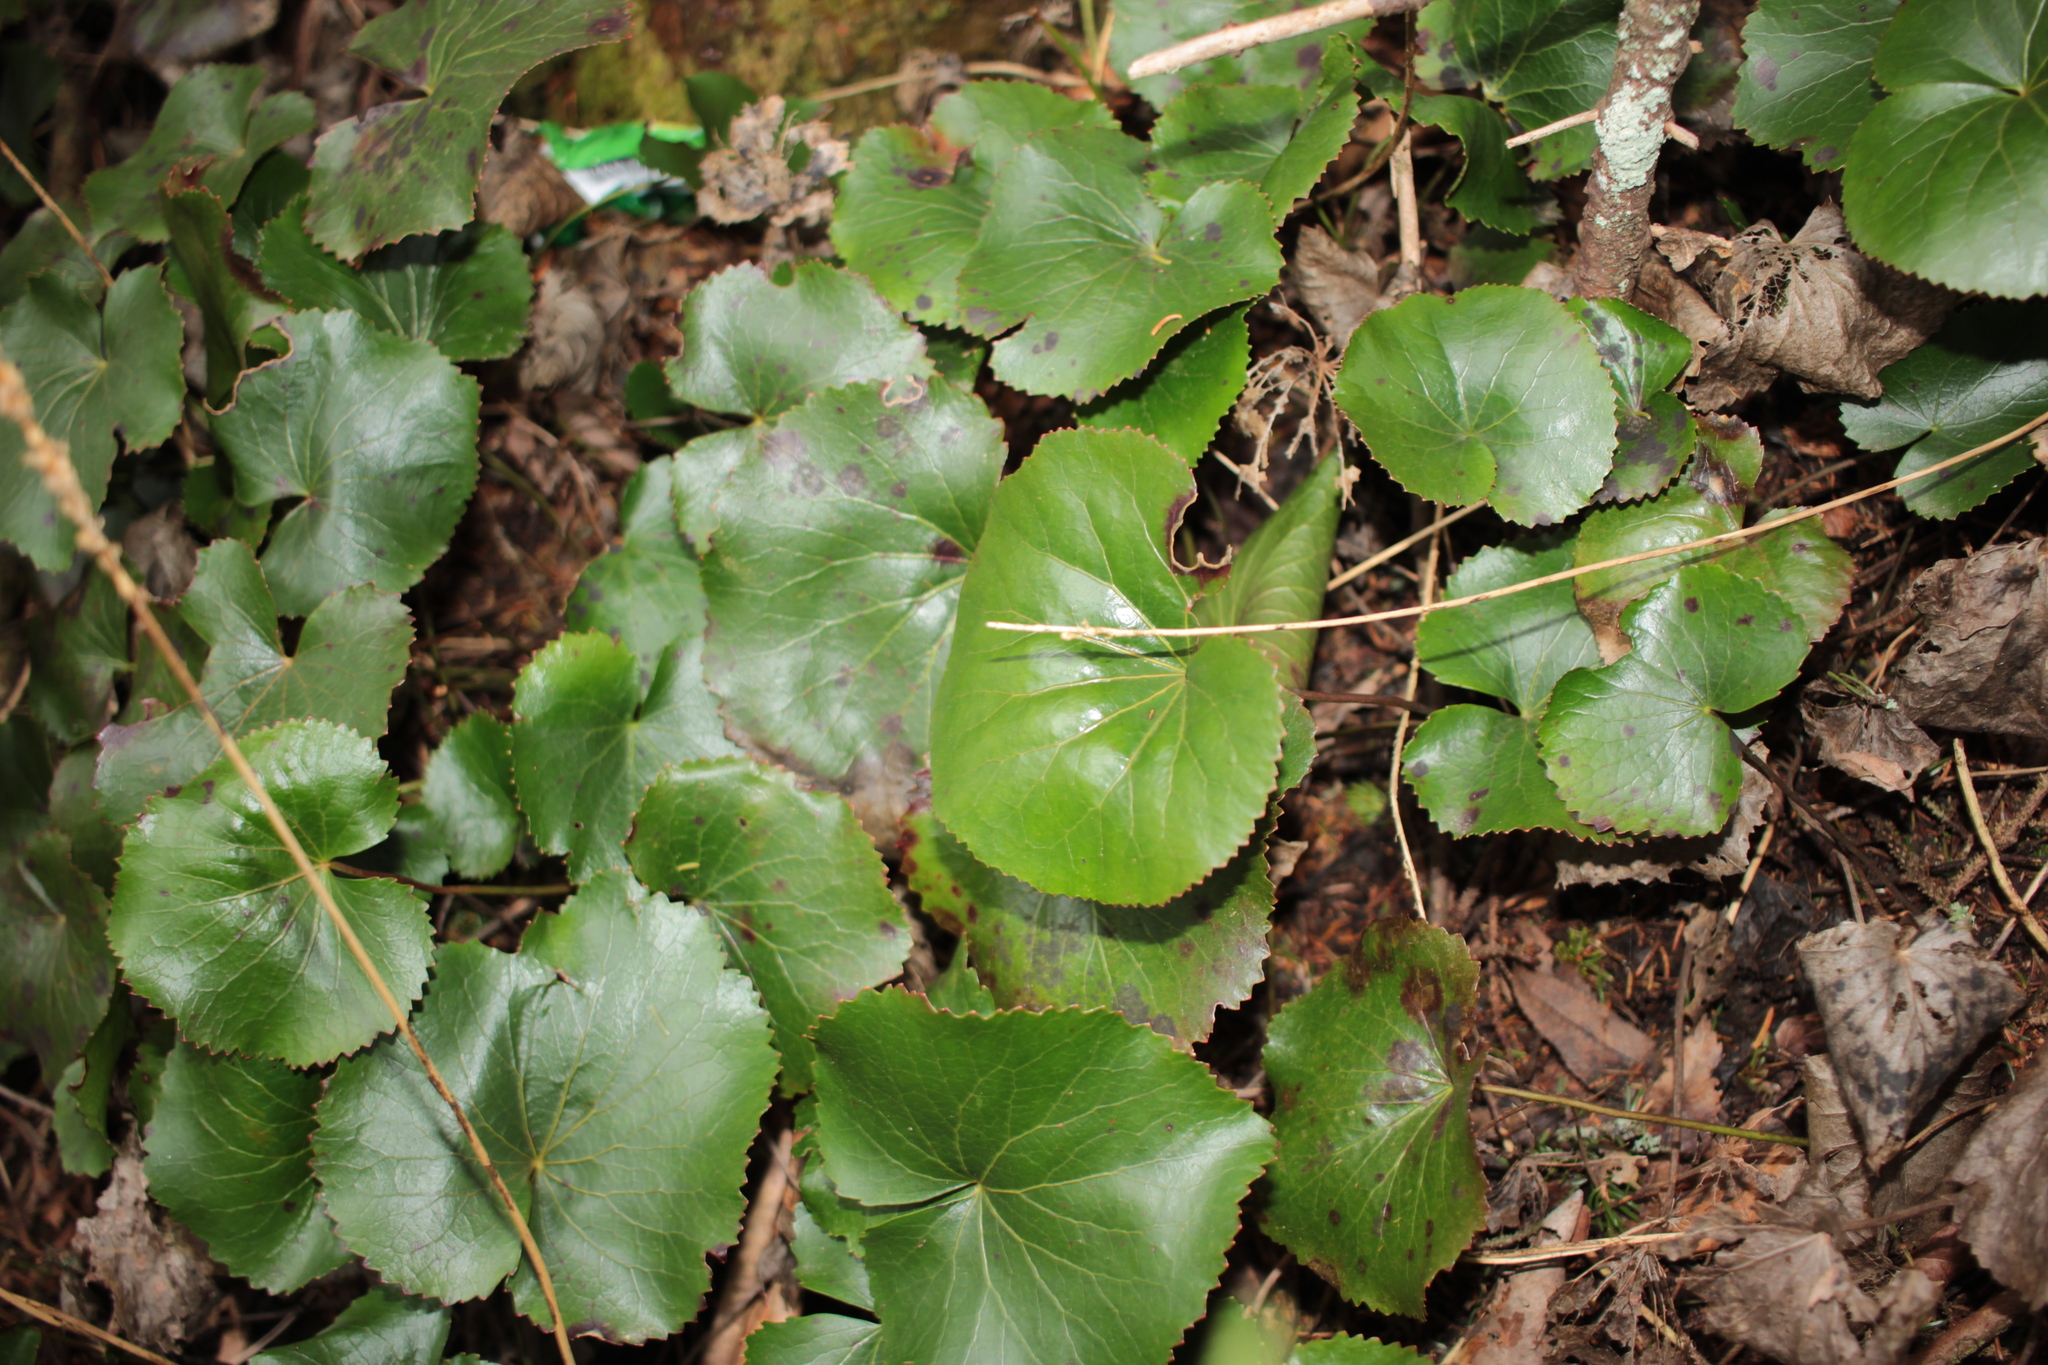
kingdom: Plantae
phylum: Tracheophyta
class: Magnoliopsida
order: Ericales
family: Diapensiaceae
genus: Galax
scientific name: Galax urceolata
